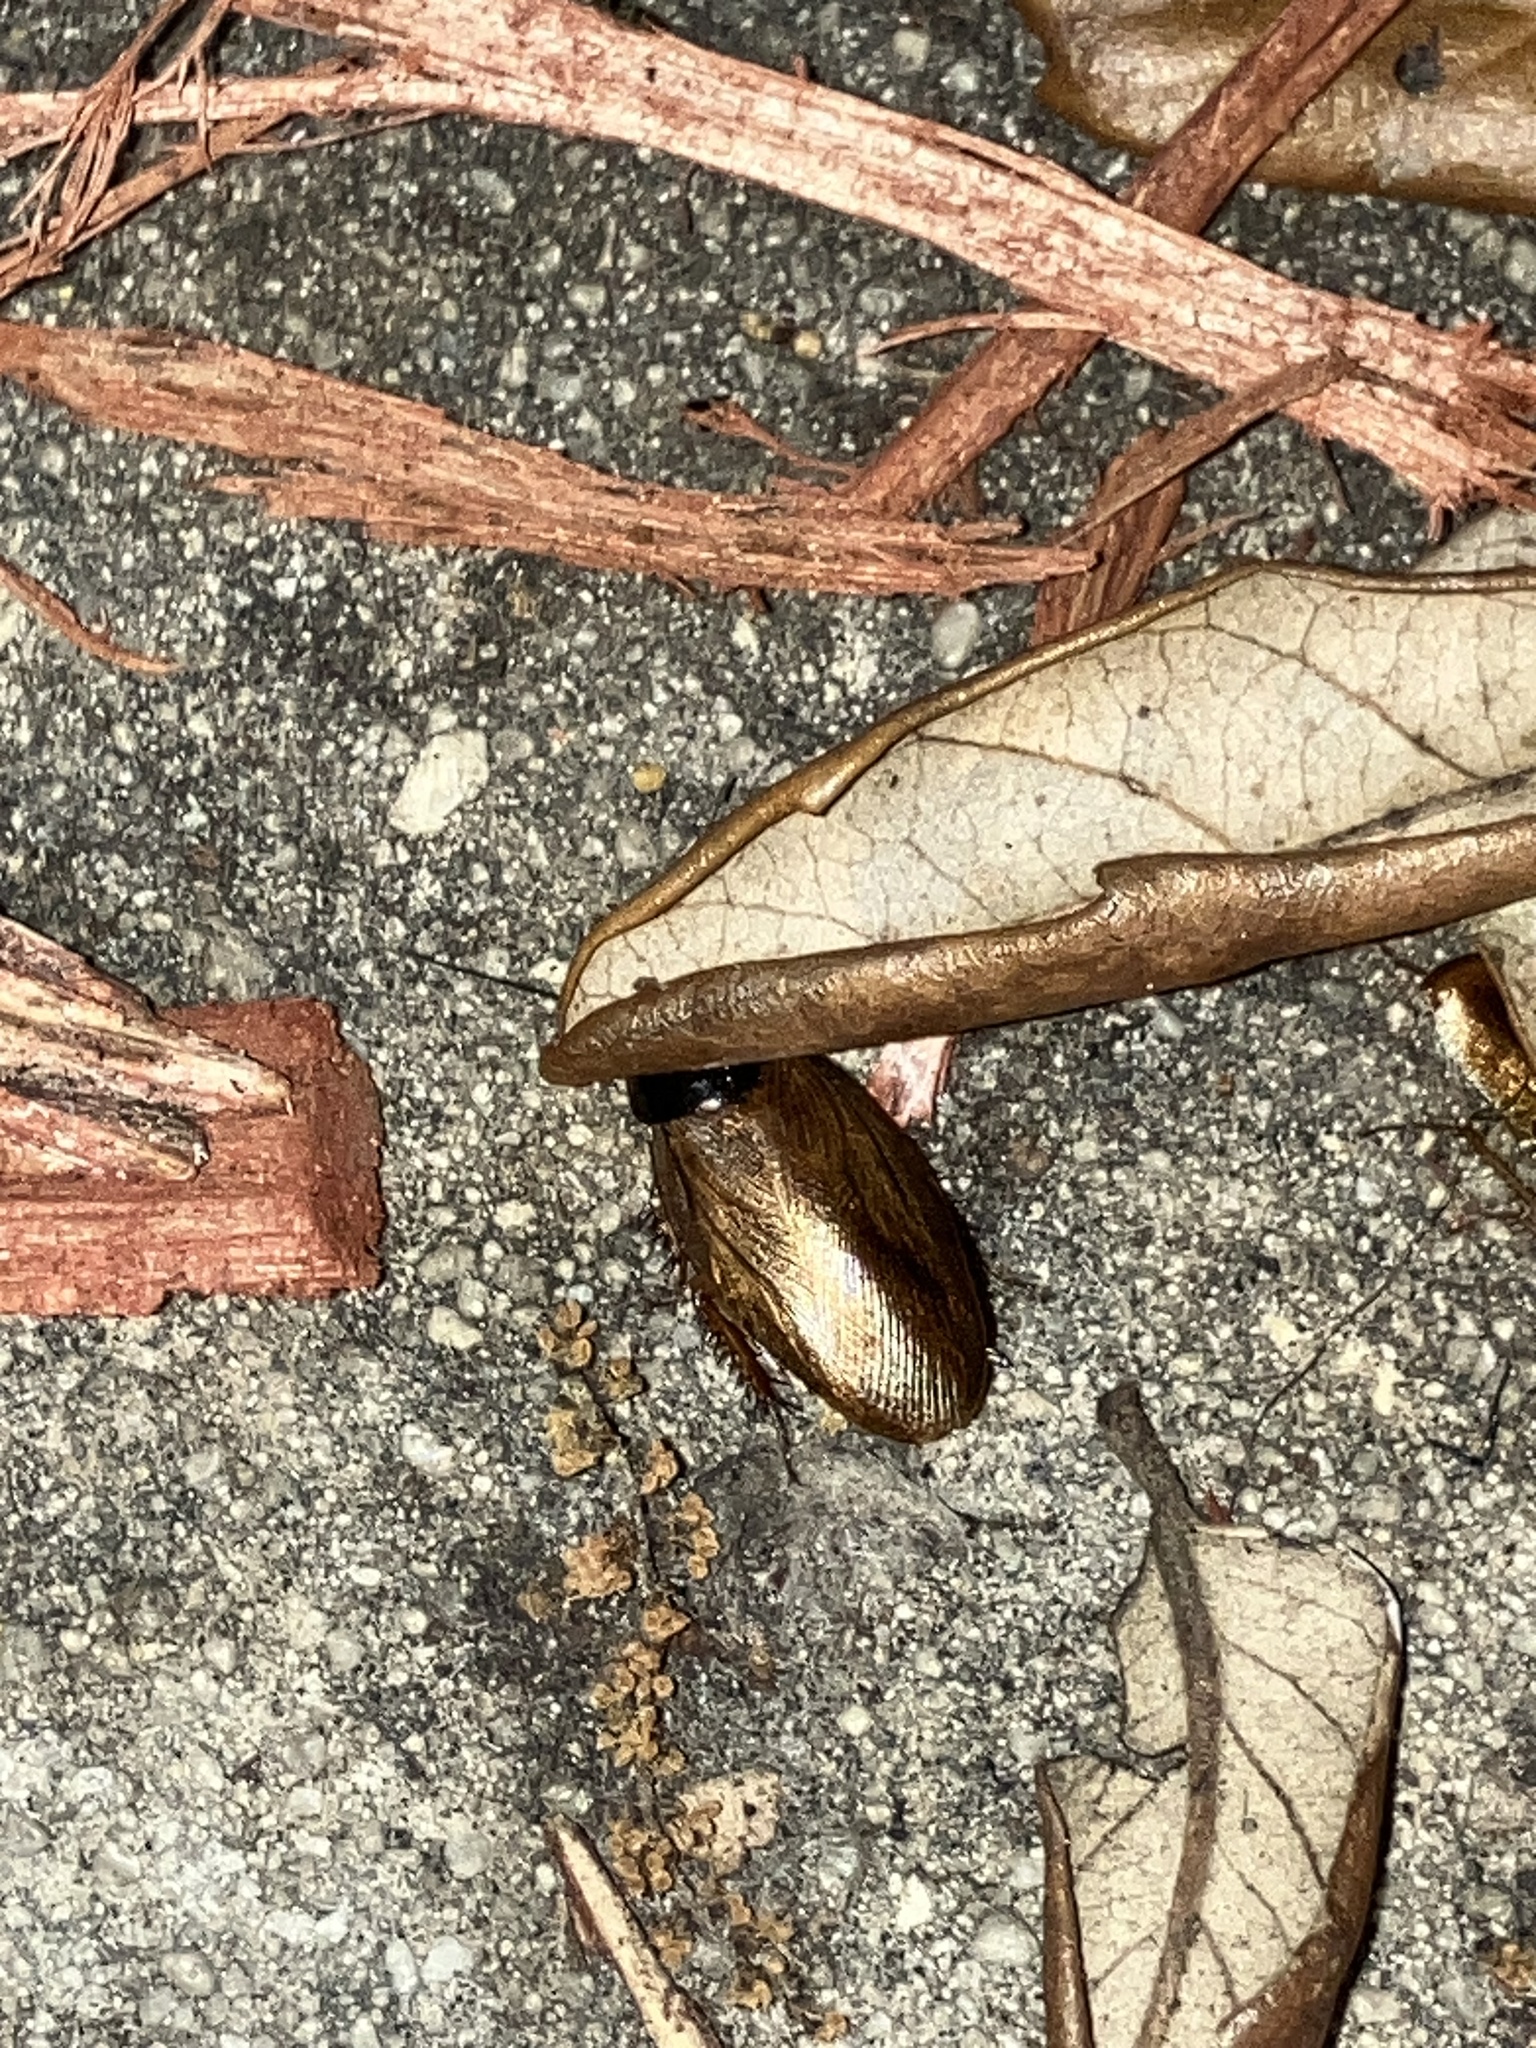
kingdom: Animalia
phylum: Arthropoda
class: Insecta
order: Blattodea
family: Blaberidae
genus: Pycnoscelus
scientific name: Pycnoscelus surinamensis
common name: Surinam cockroach
